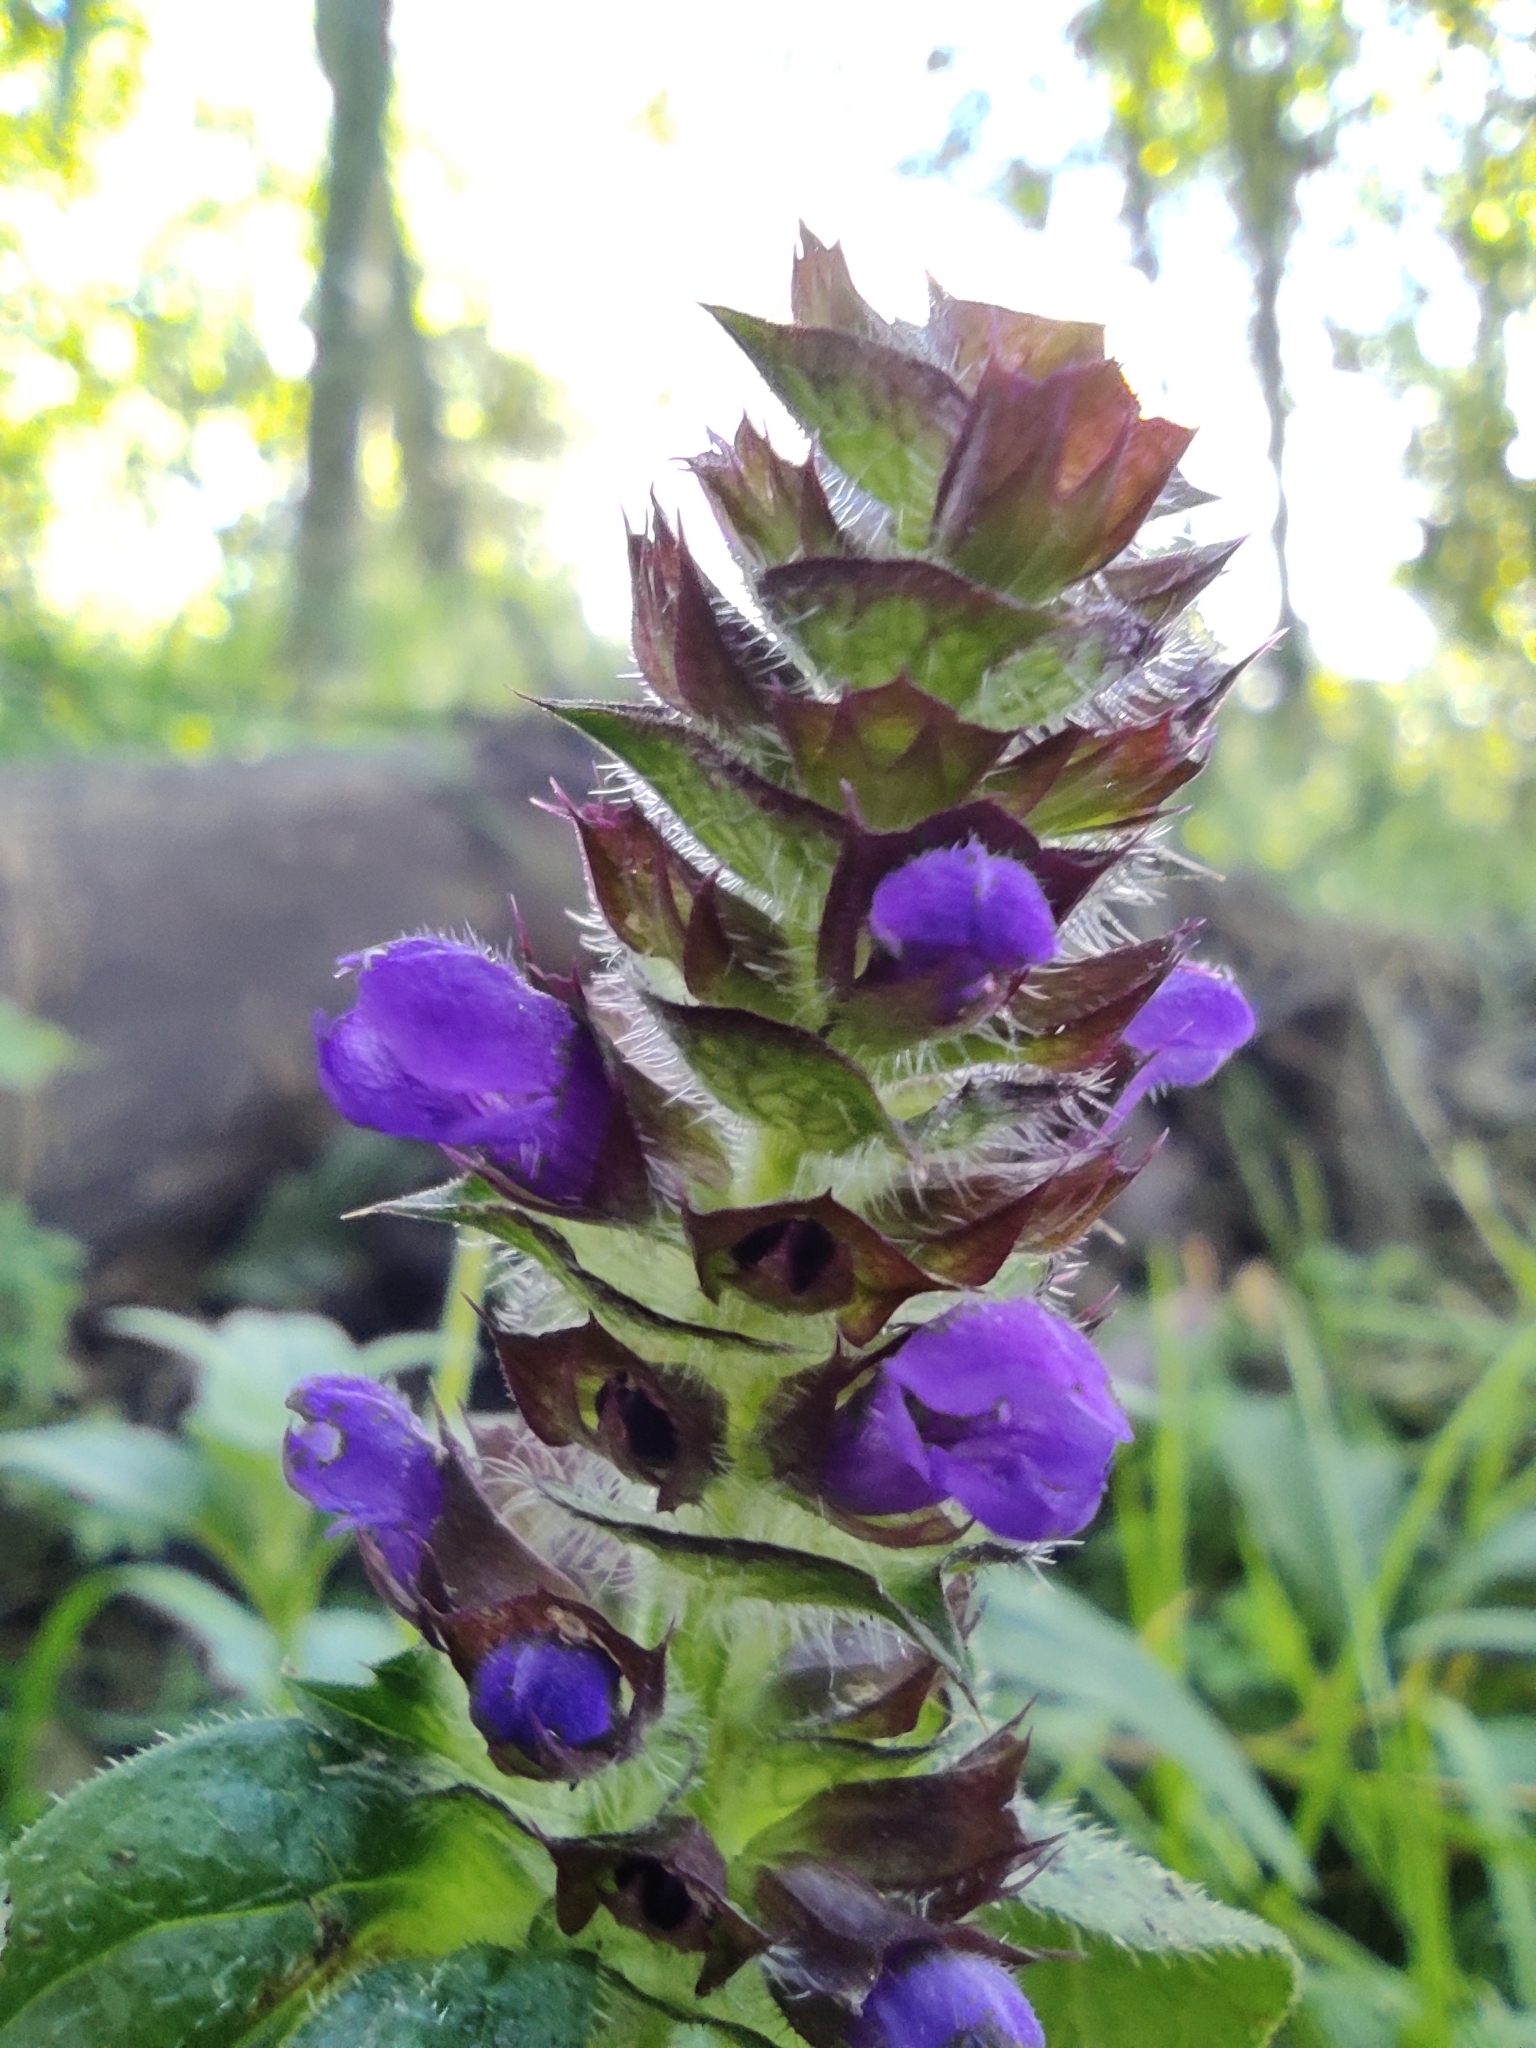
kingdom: Plantae
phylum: Tracheophyta
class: Magnoliopsida
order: Lamiales
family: Lamiaceae
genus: Prunella
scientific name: Prunella vulgaris
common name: Heal-all
